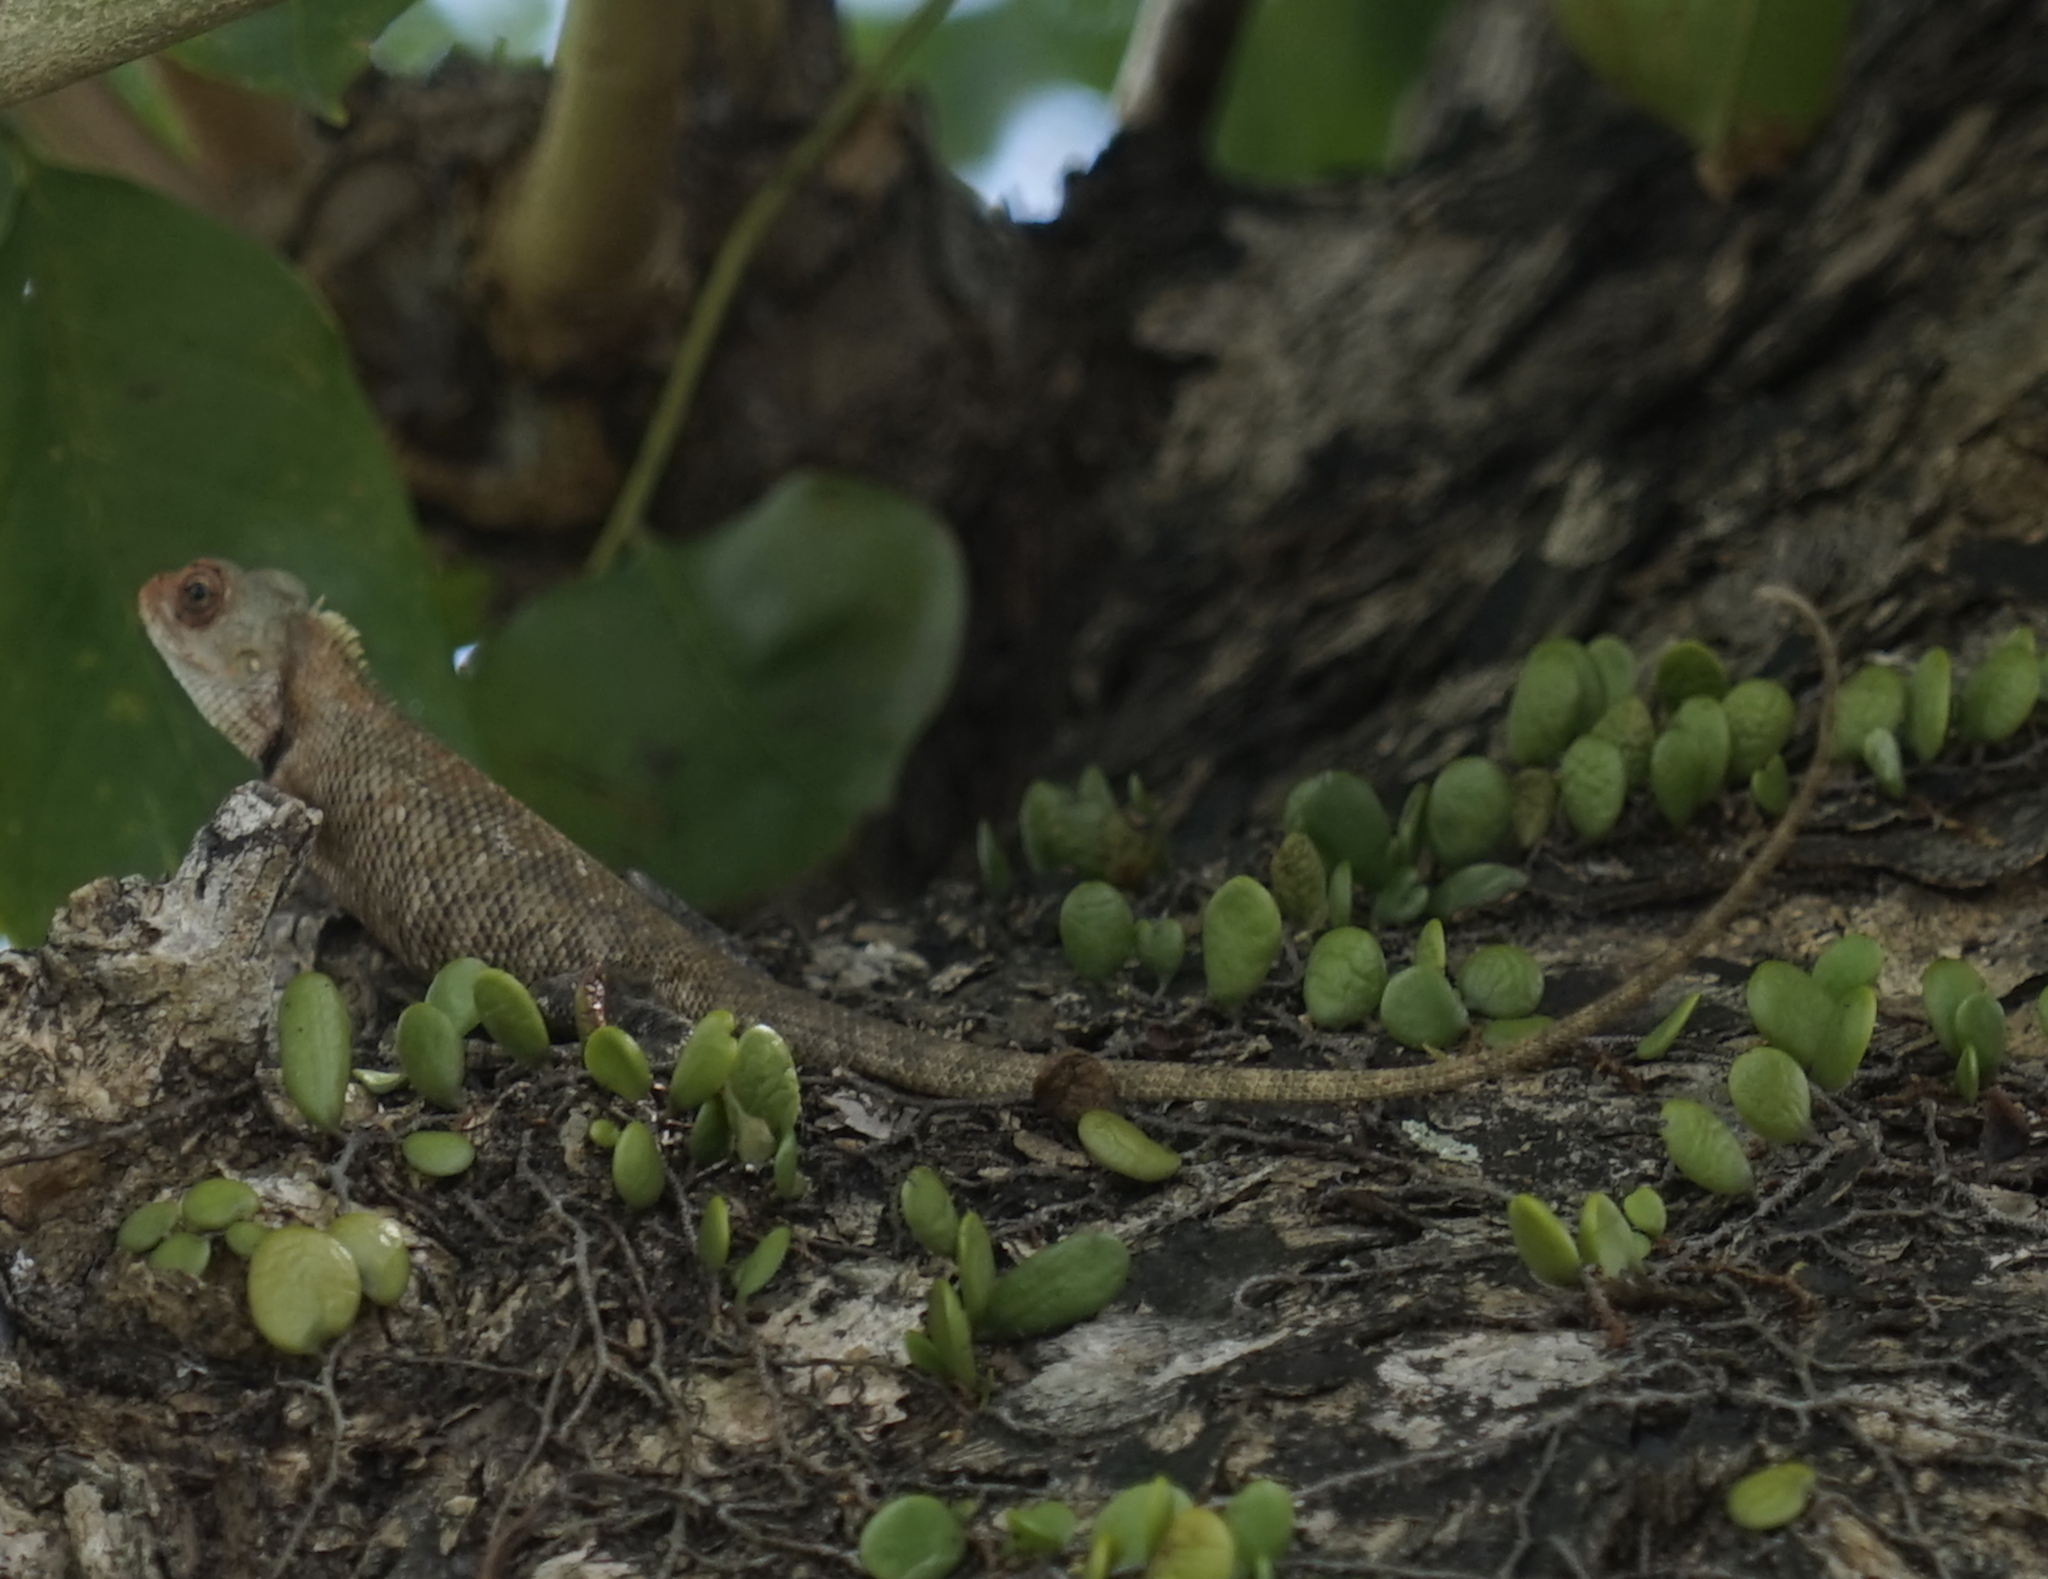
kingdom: Animalia
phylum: Chordata
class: Squamata
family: Agamidae
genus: Calotes
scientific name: Calotes versicolor
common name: Oriental garden lizard
